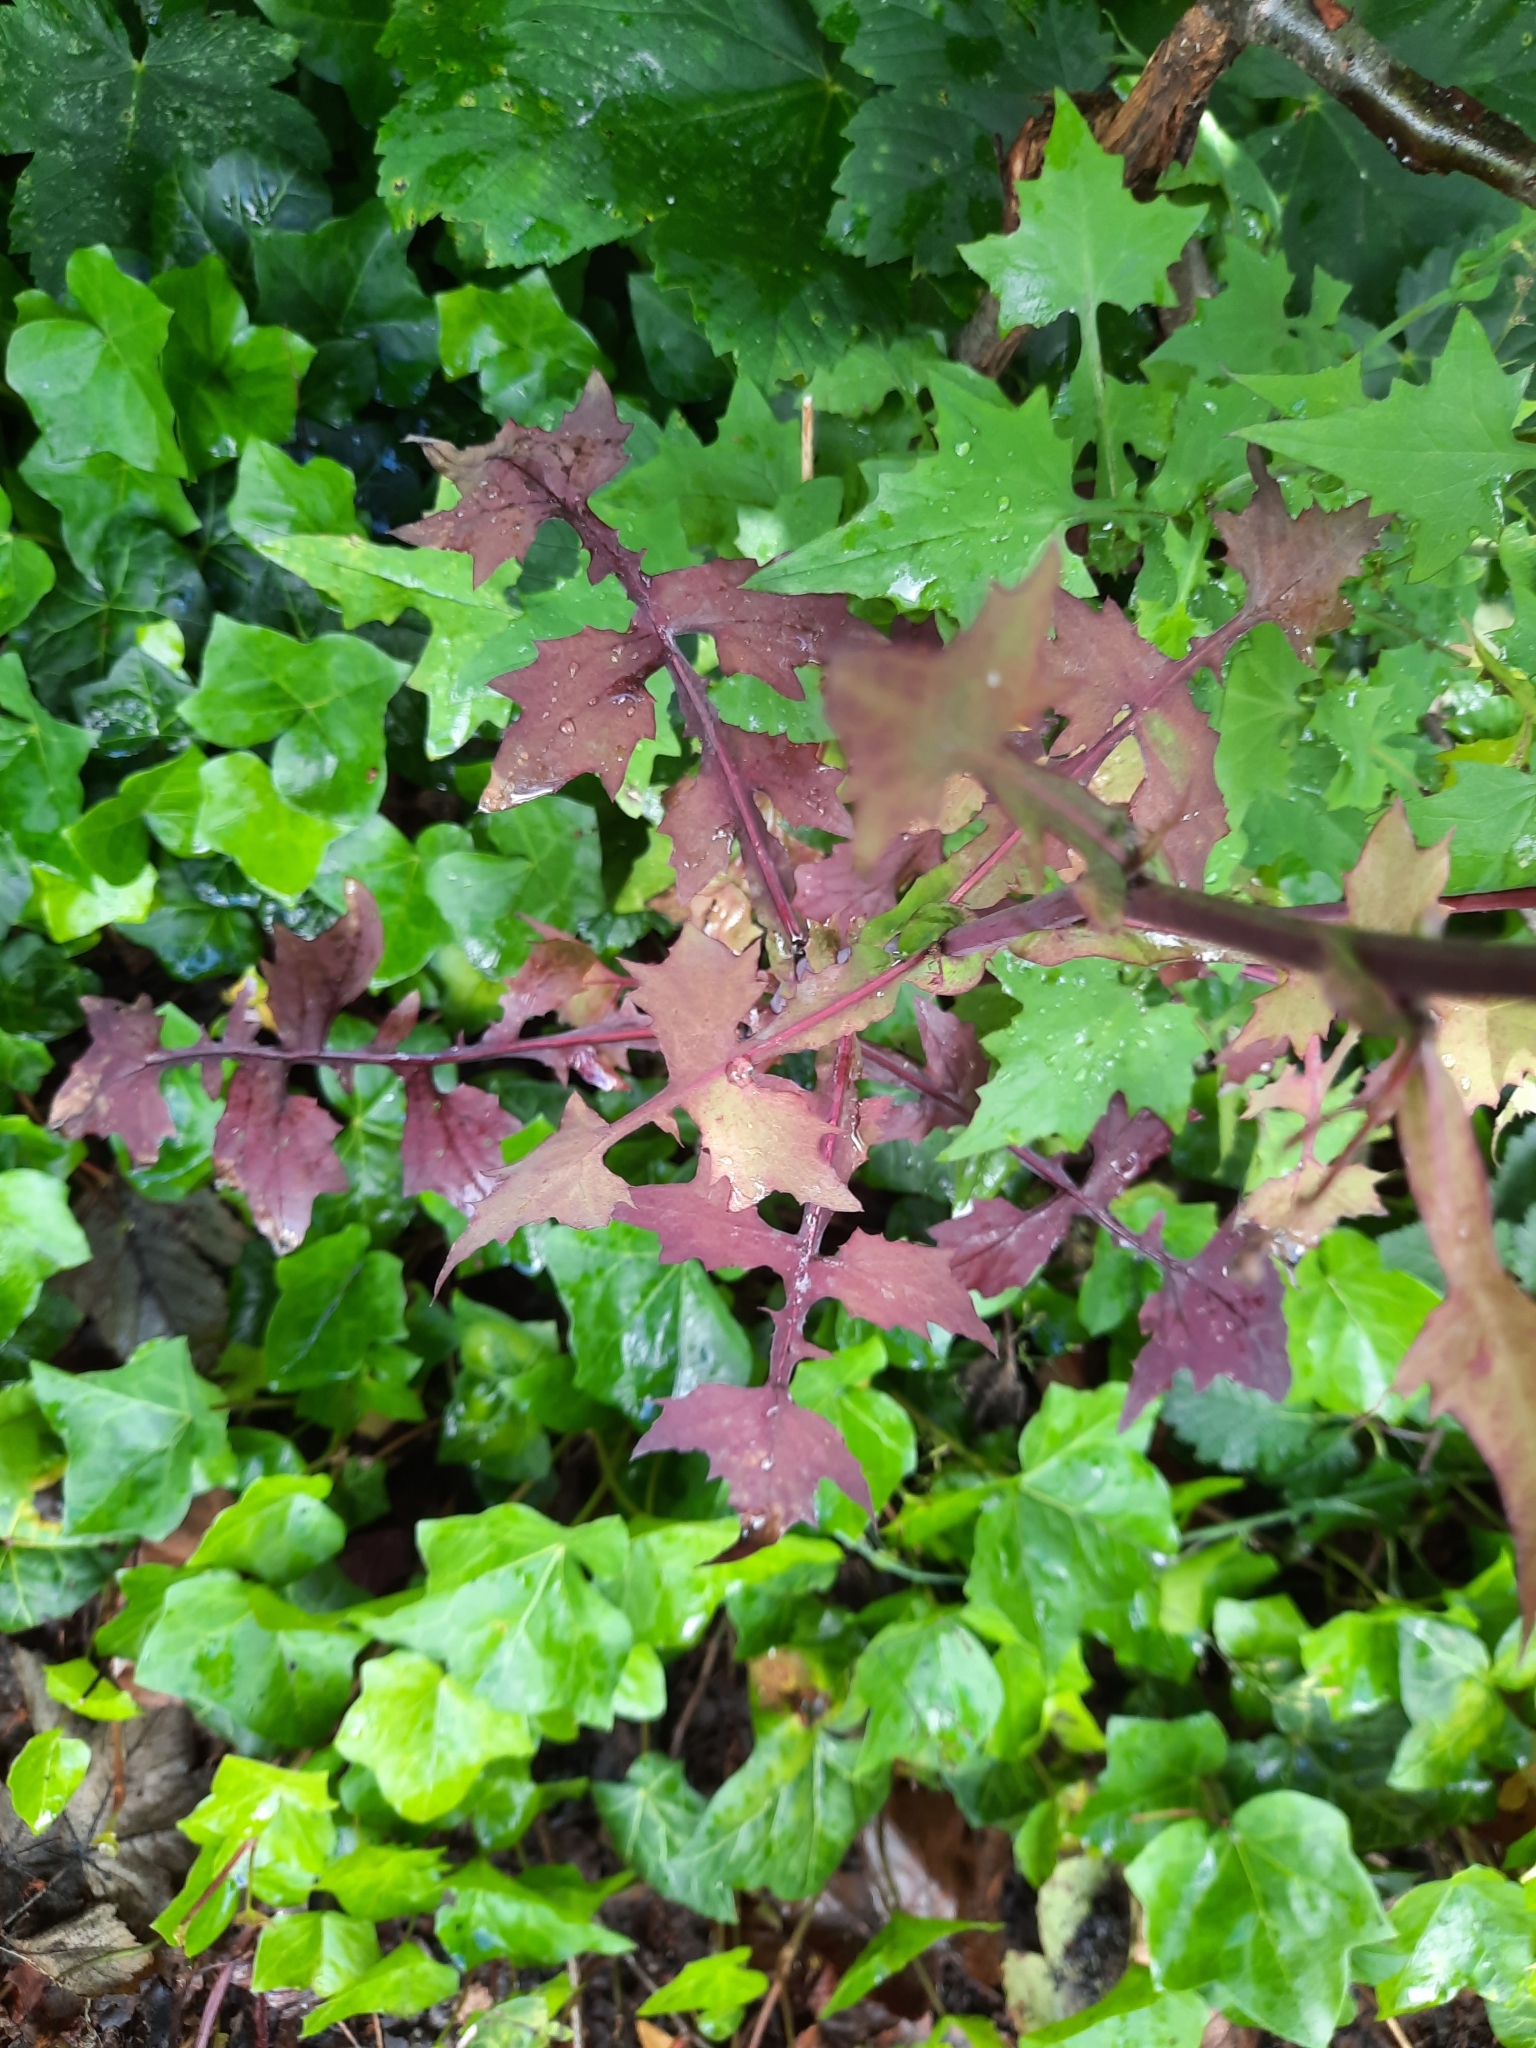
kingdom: Plantae
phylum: Tracheophyta
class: Magnoliopsida
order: Asterales
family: Asteraceae
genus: Mycelis
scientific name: Mycelis muralis
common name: Wall lettuce
